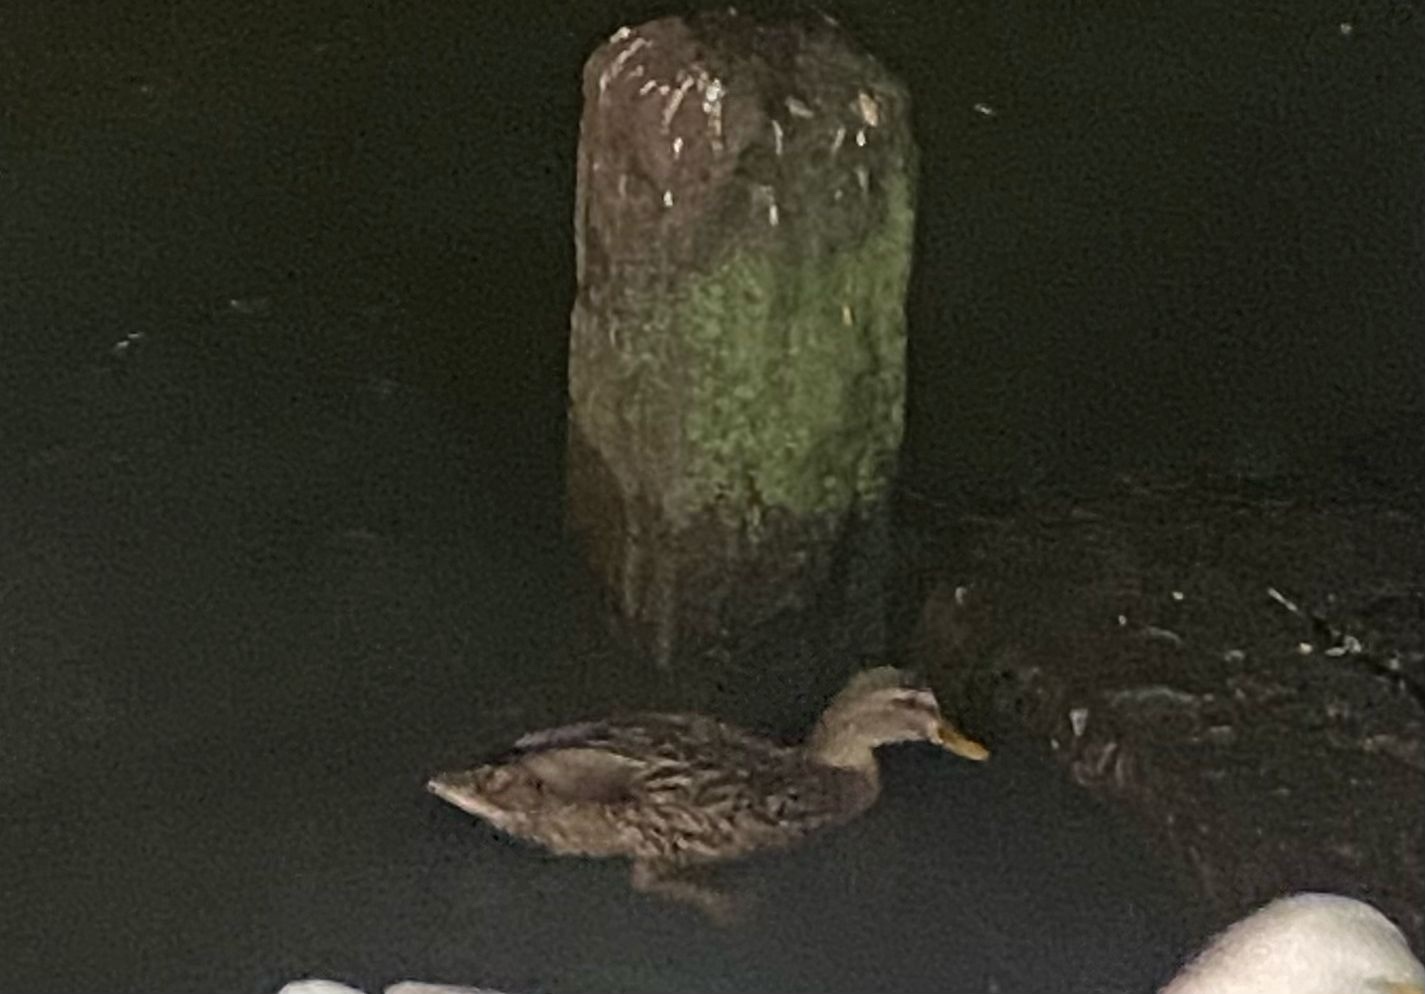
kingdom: Animalia
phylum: Chordata
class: Aves
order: Anseriformes
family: Anatidae
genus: Anas
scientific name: Anas platyrhynchos
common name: Mallard
